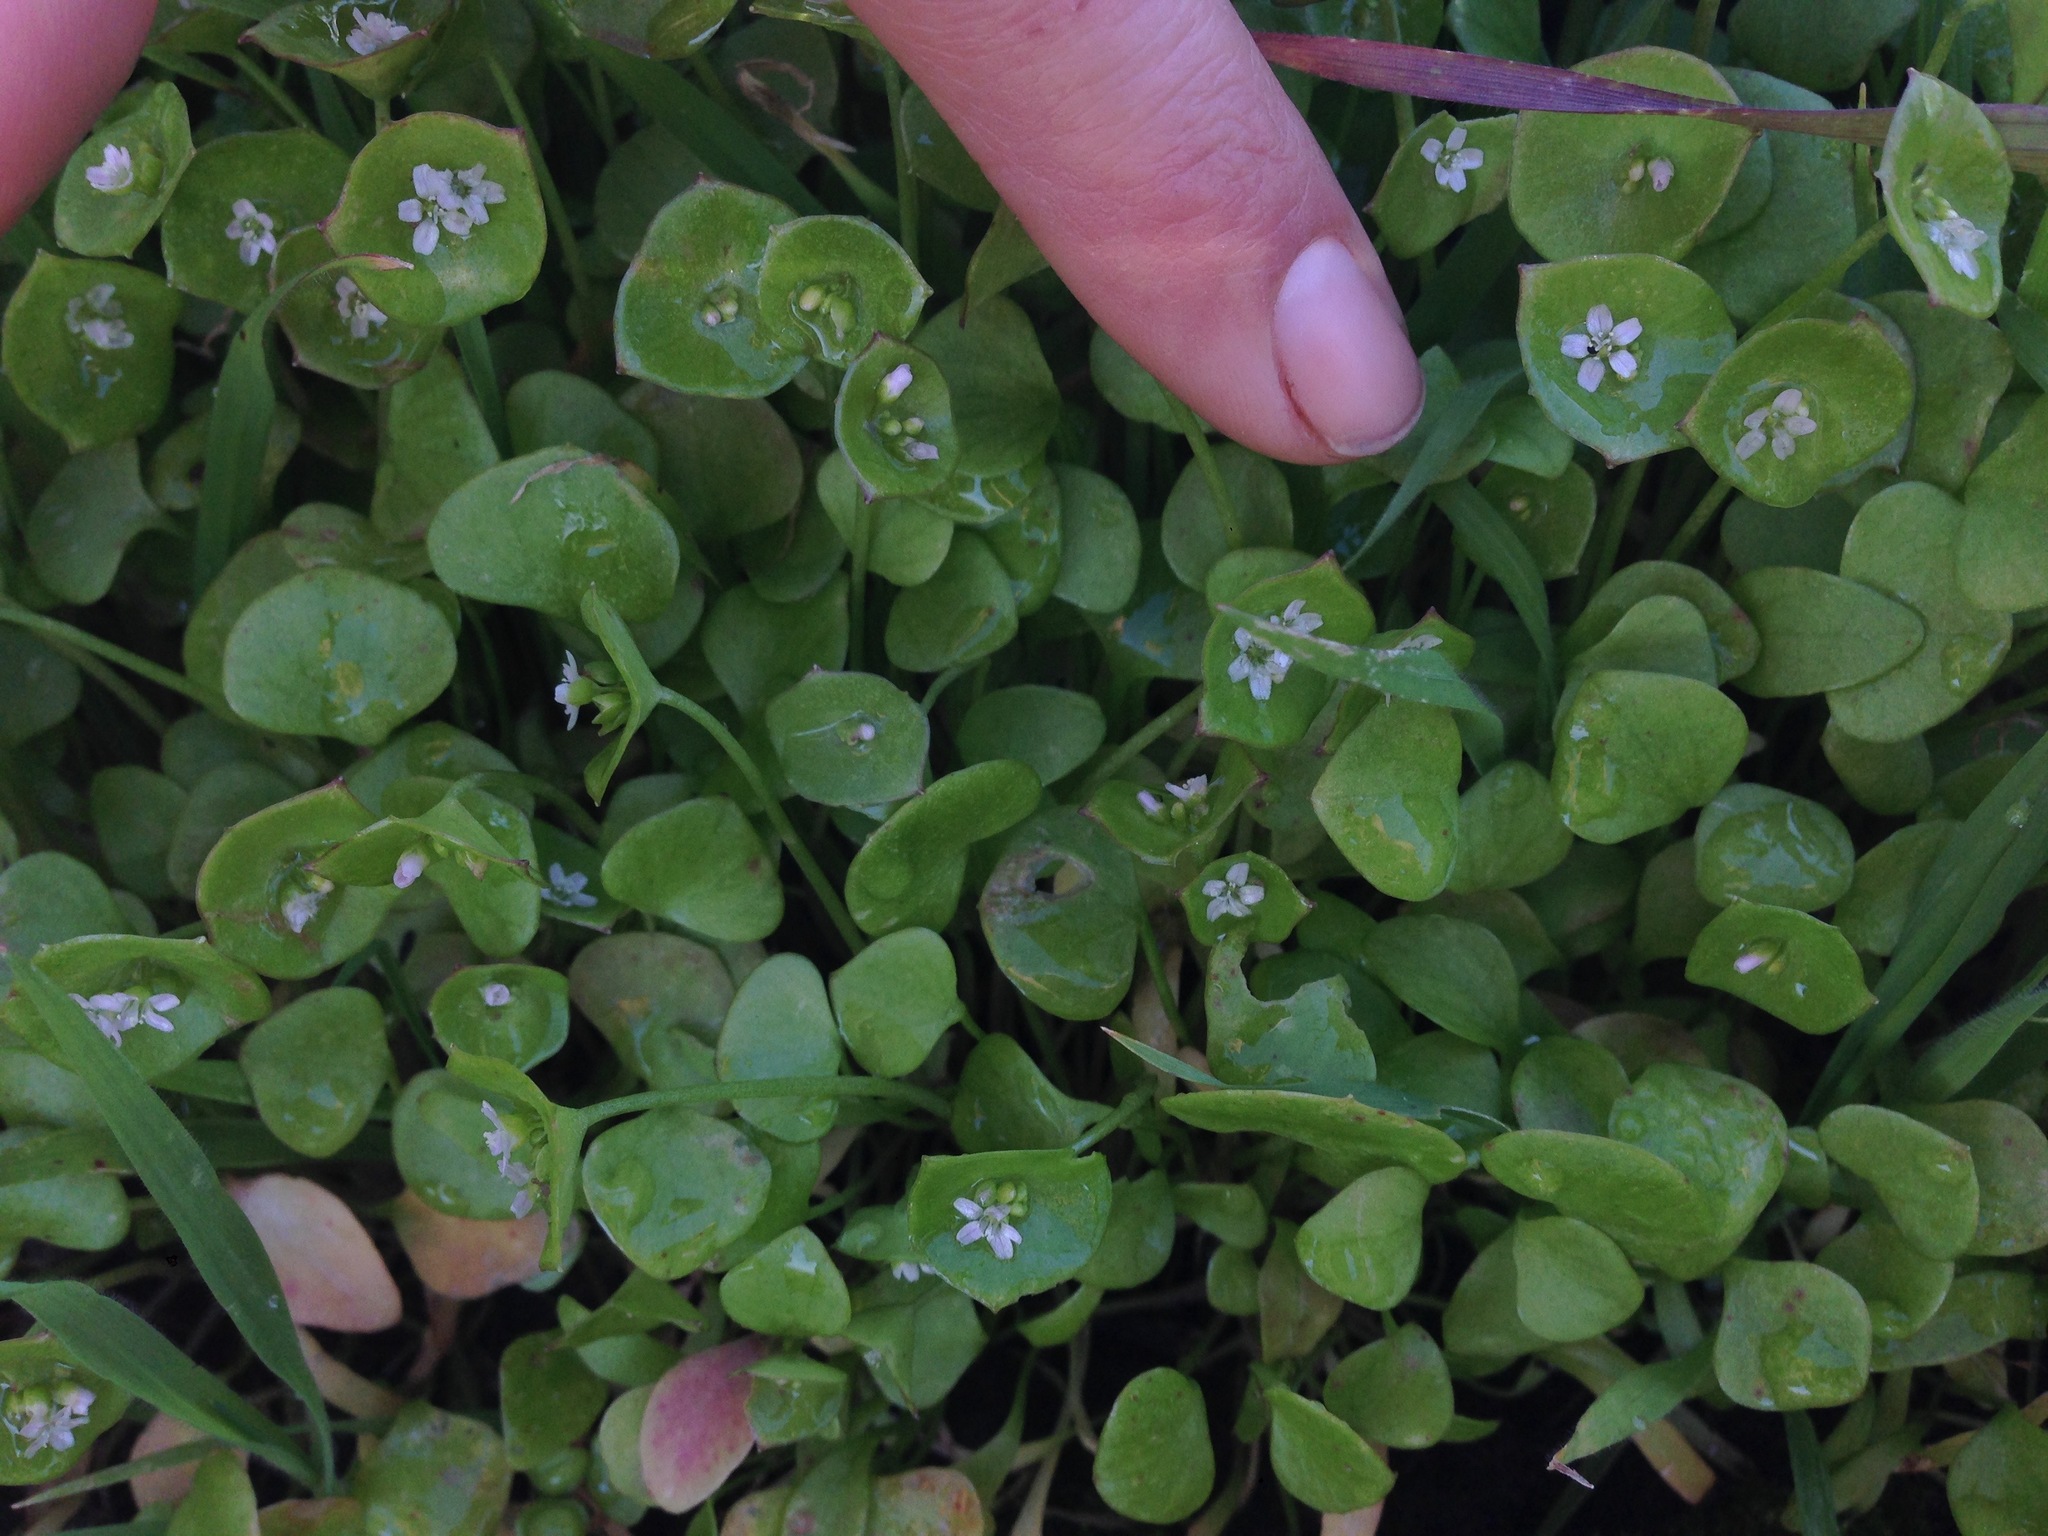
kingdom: Plantae
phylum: Tracheophyta
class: Magnoliopsida
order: Caryophyllales
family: Montiaceae
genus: Claytonia
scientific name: Claytonia perfoliata
